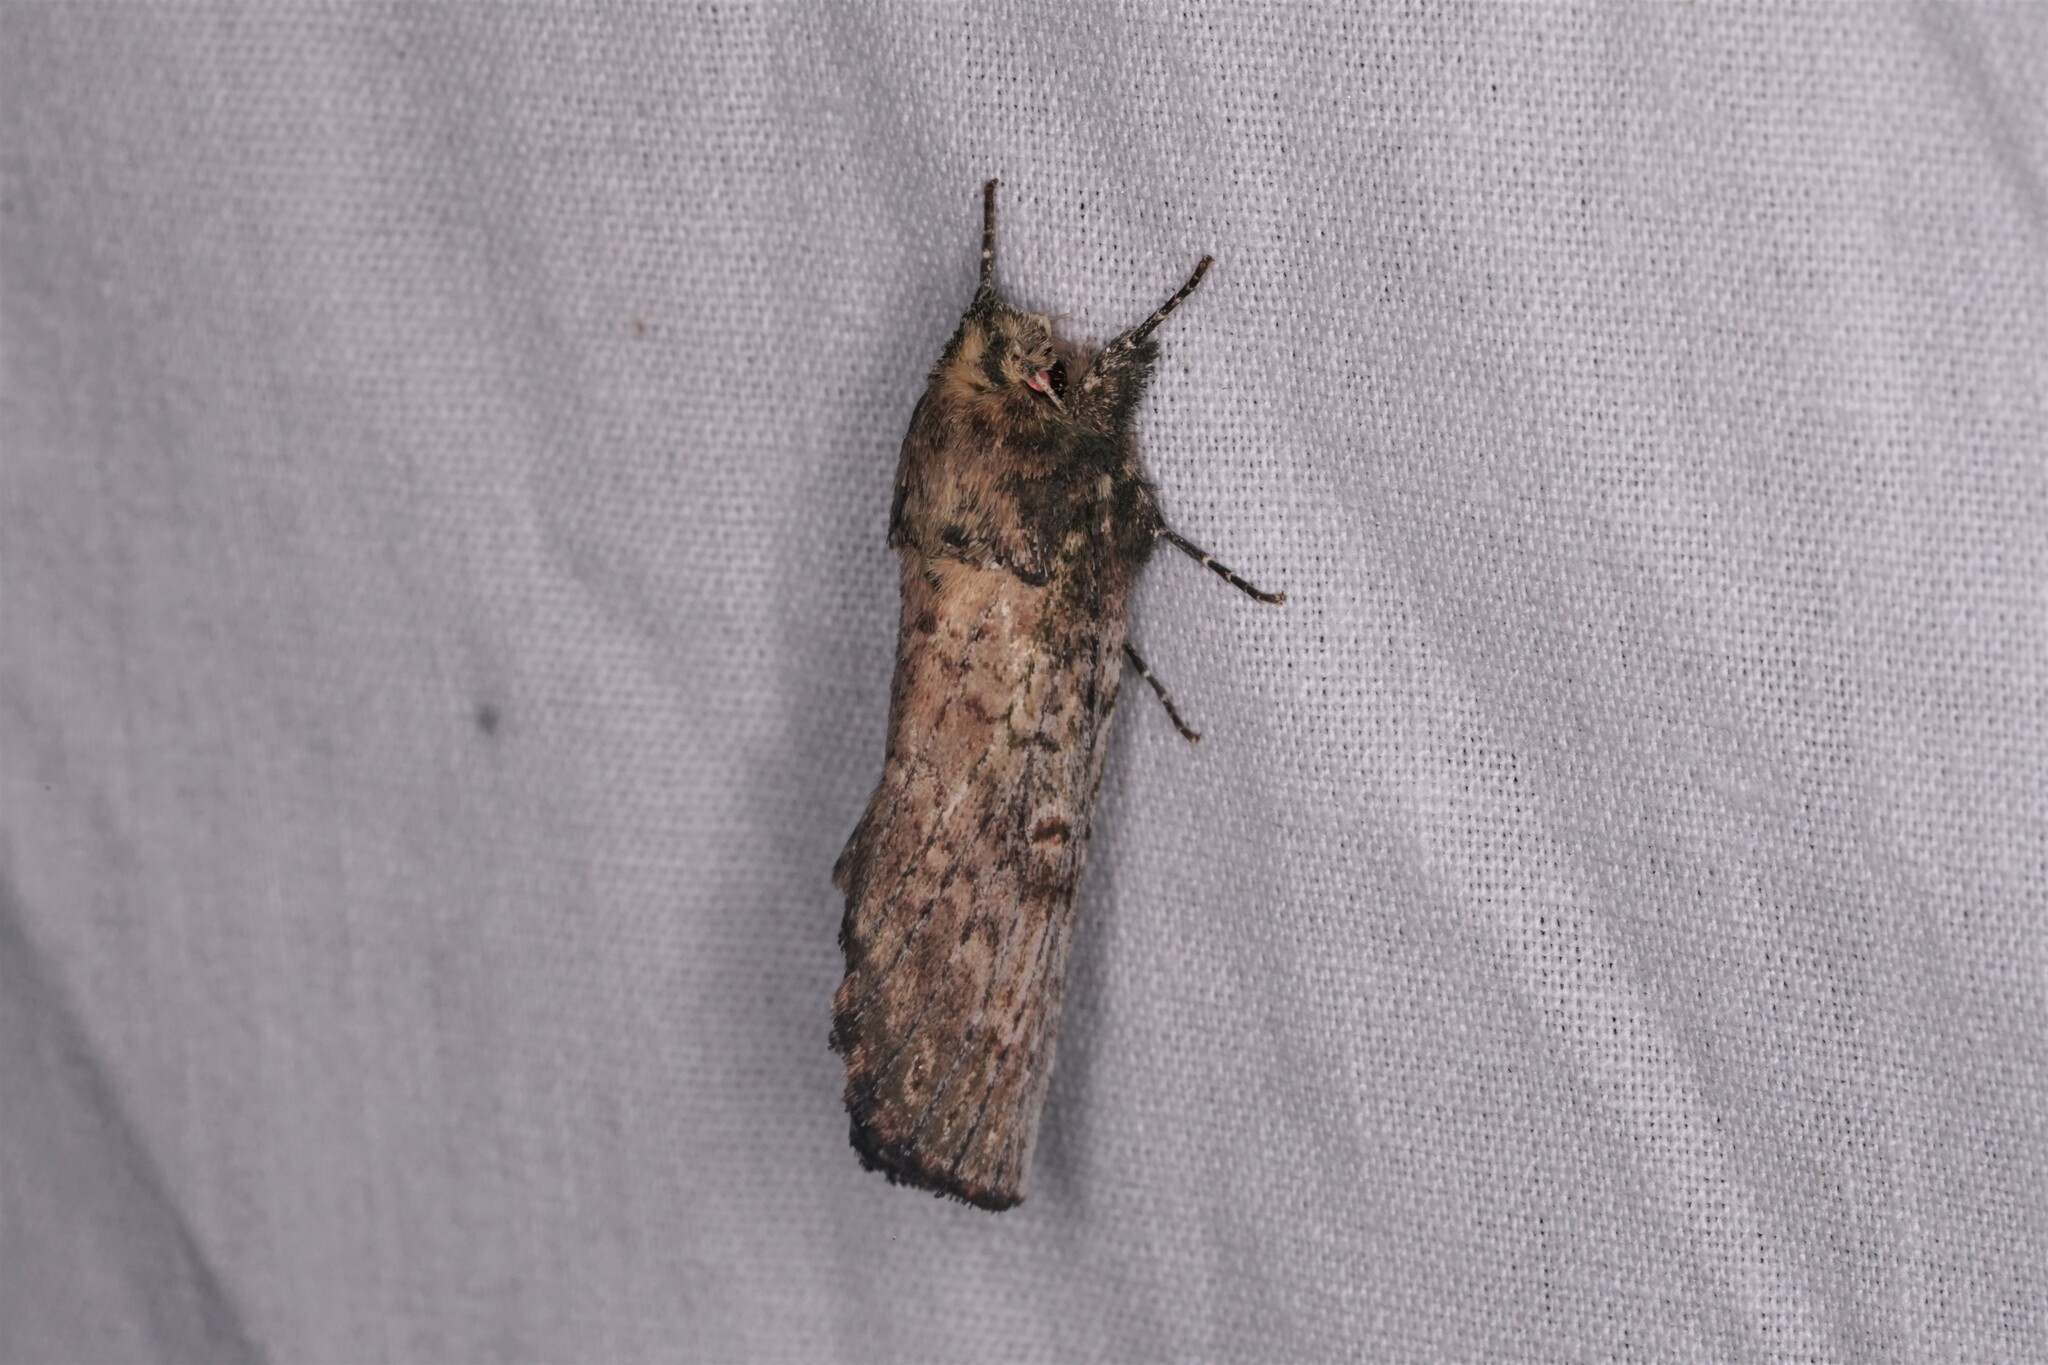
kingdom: Animalia
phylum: Arthropoda
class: Insecta
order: Lepidoptera
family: Notodontidae
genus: Schizura
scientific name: Schizura ipomaeae
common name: Morning-glory prominent
